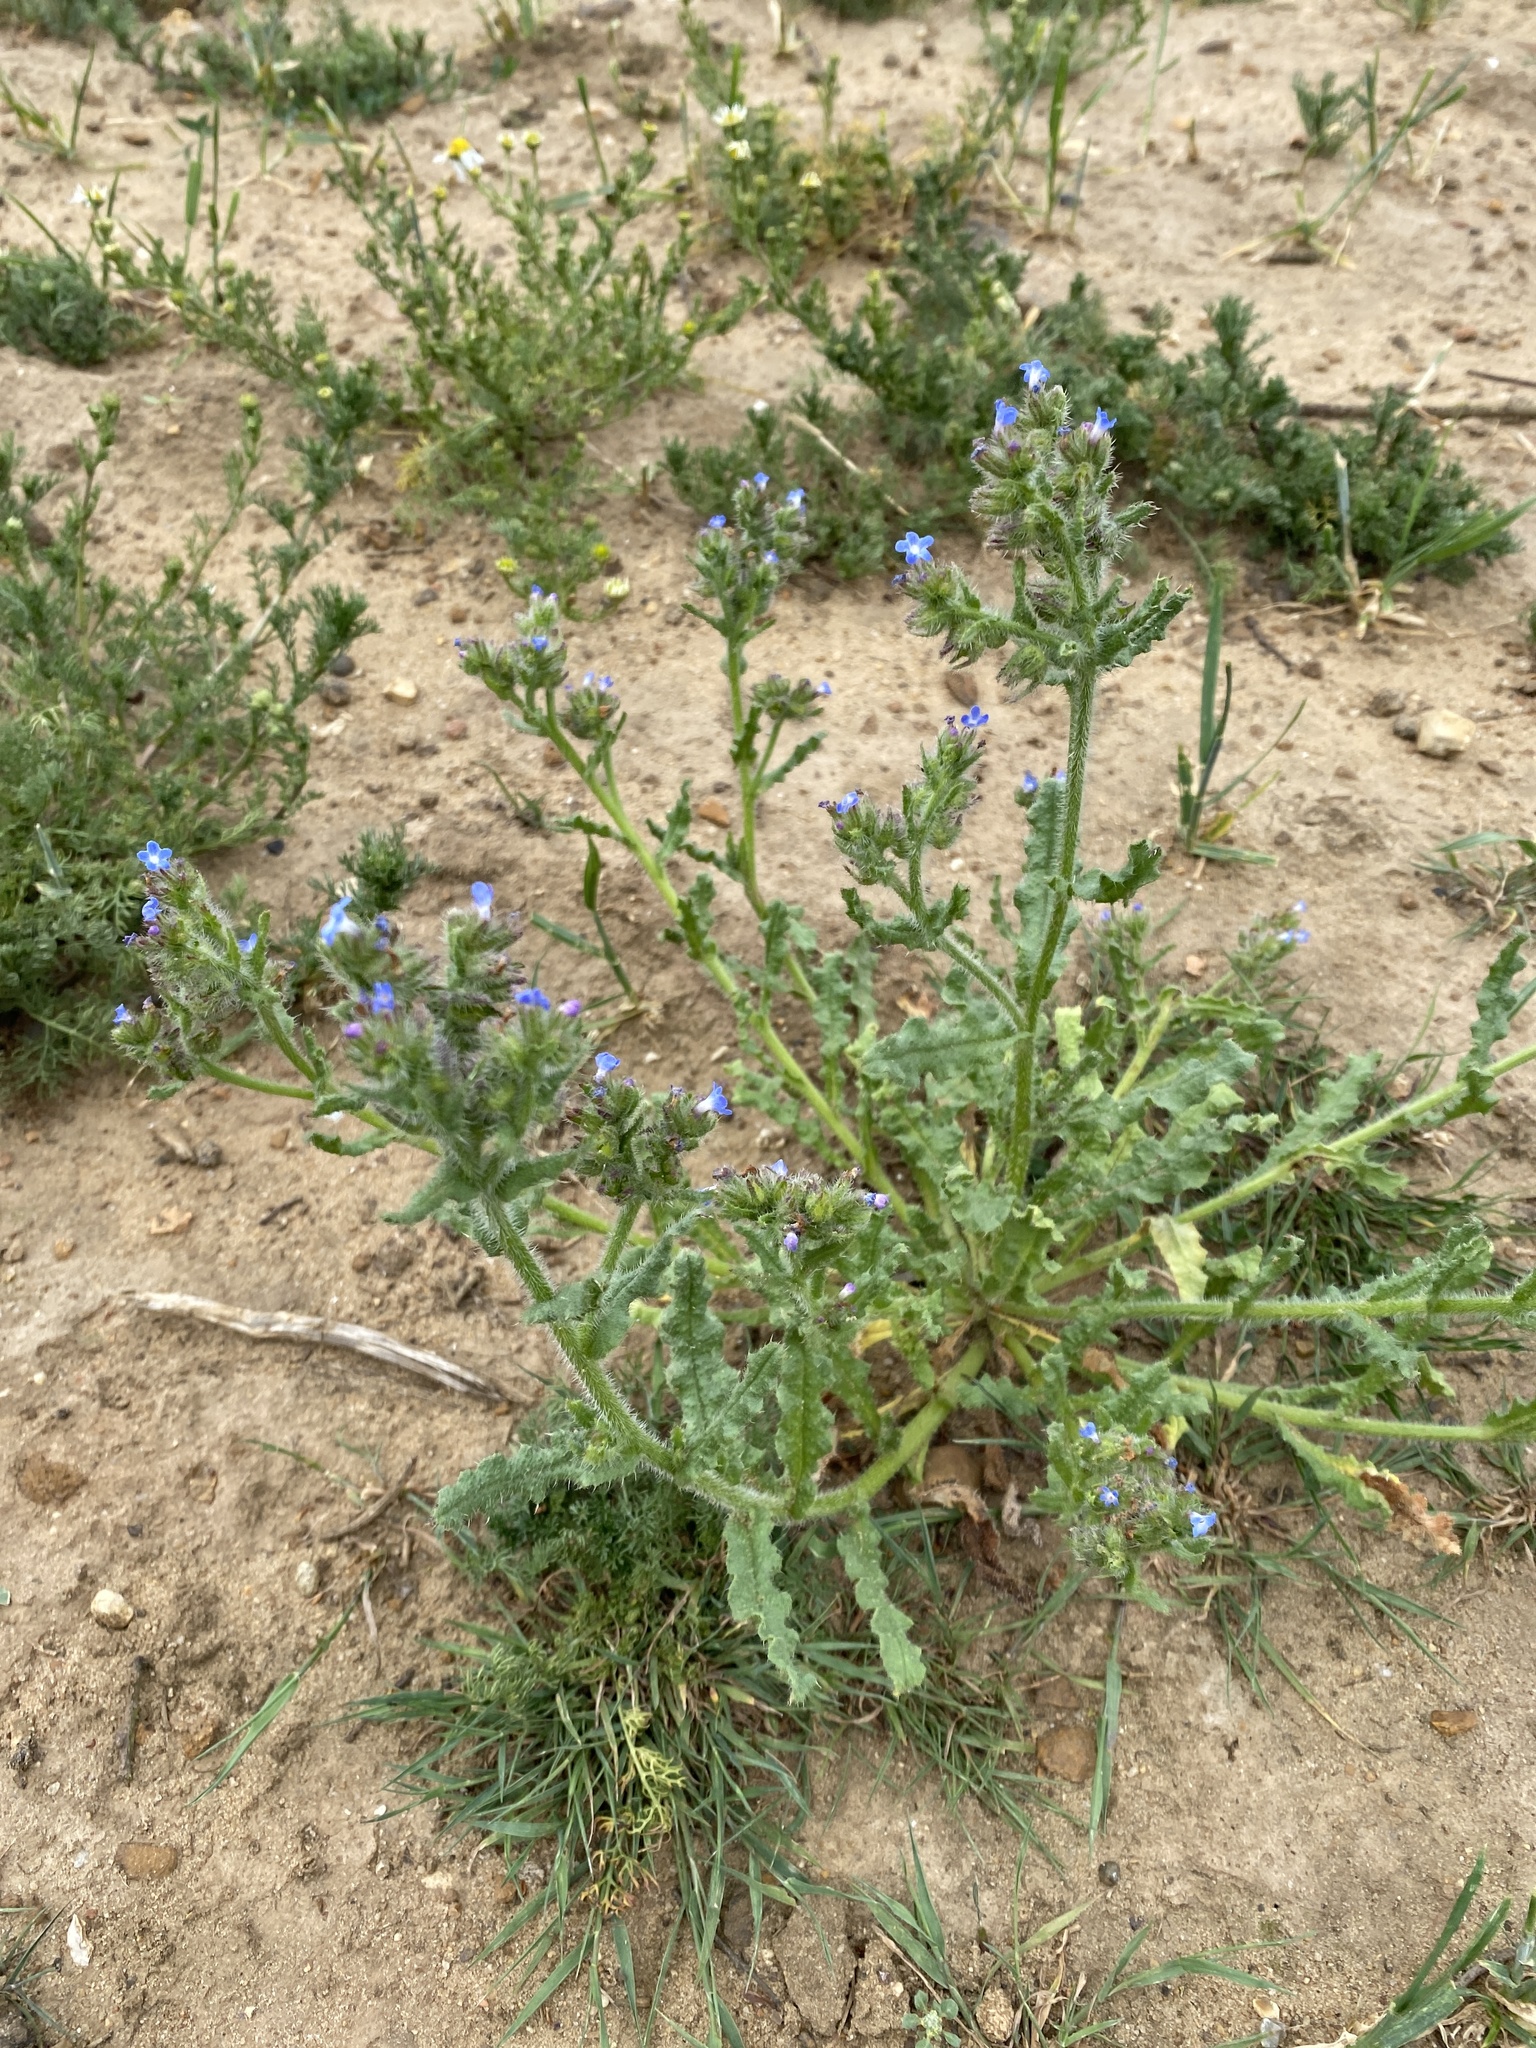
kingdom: Plantae
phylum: Tracheophyta
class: Magnoliopsida
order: Boraginales
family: Boraginaceae
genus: Lycopsis
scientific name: Lycopsis arvensis
